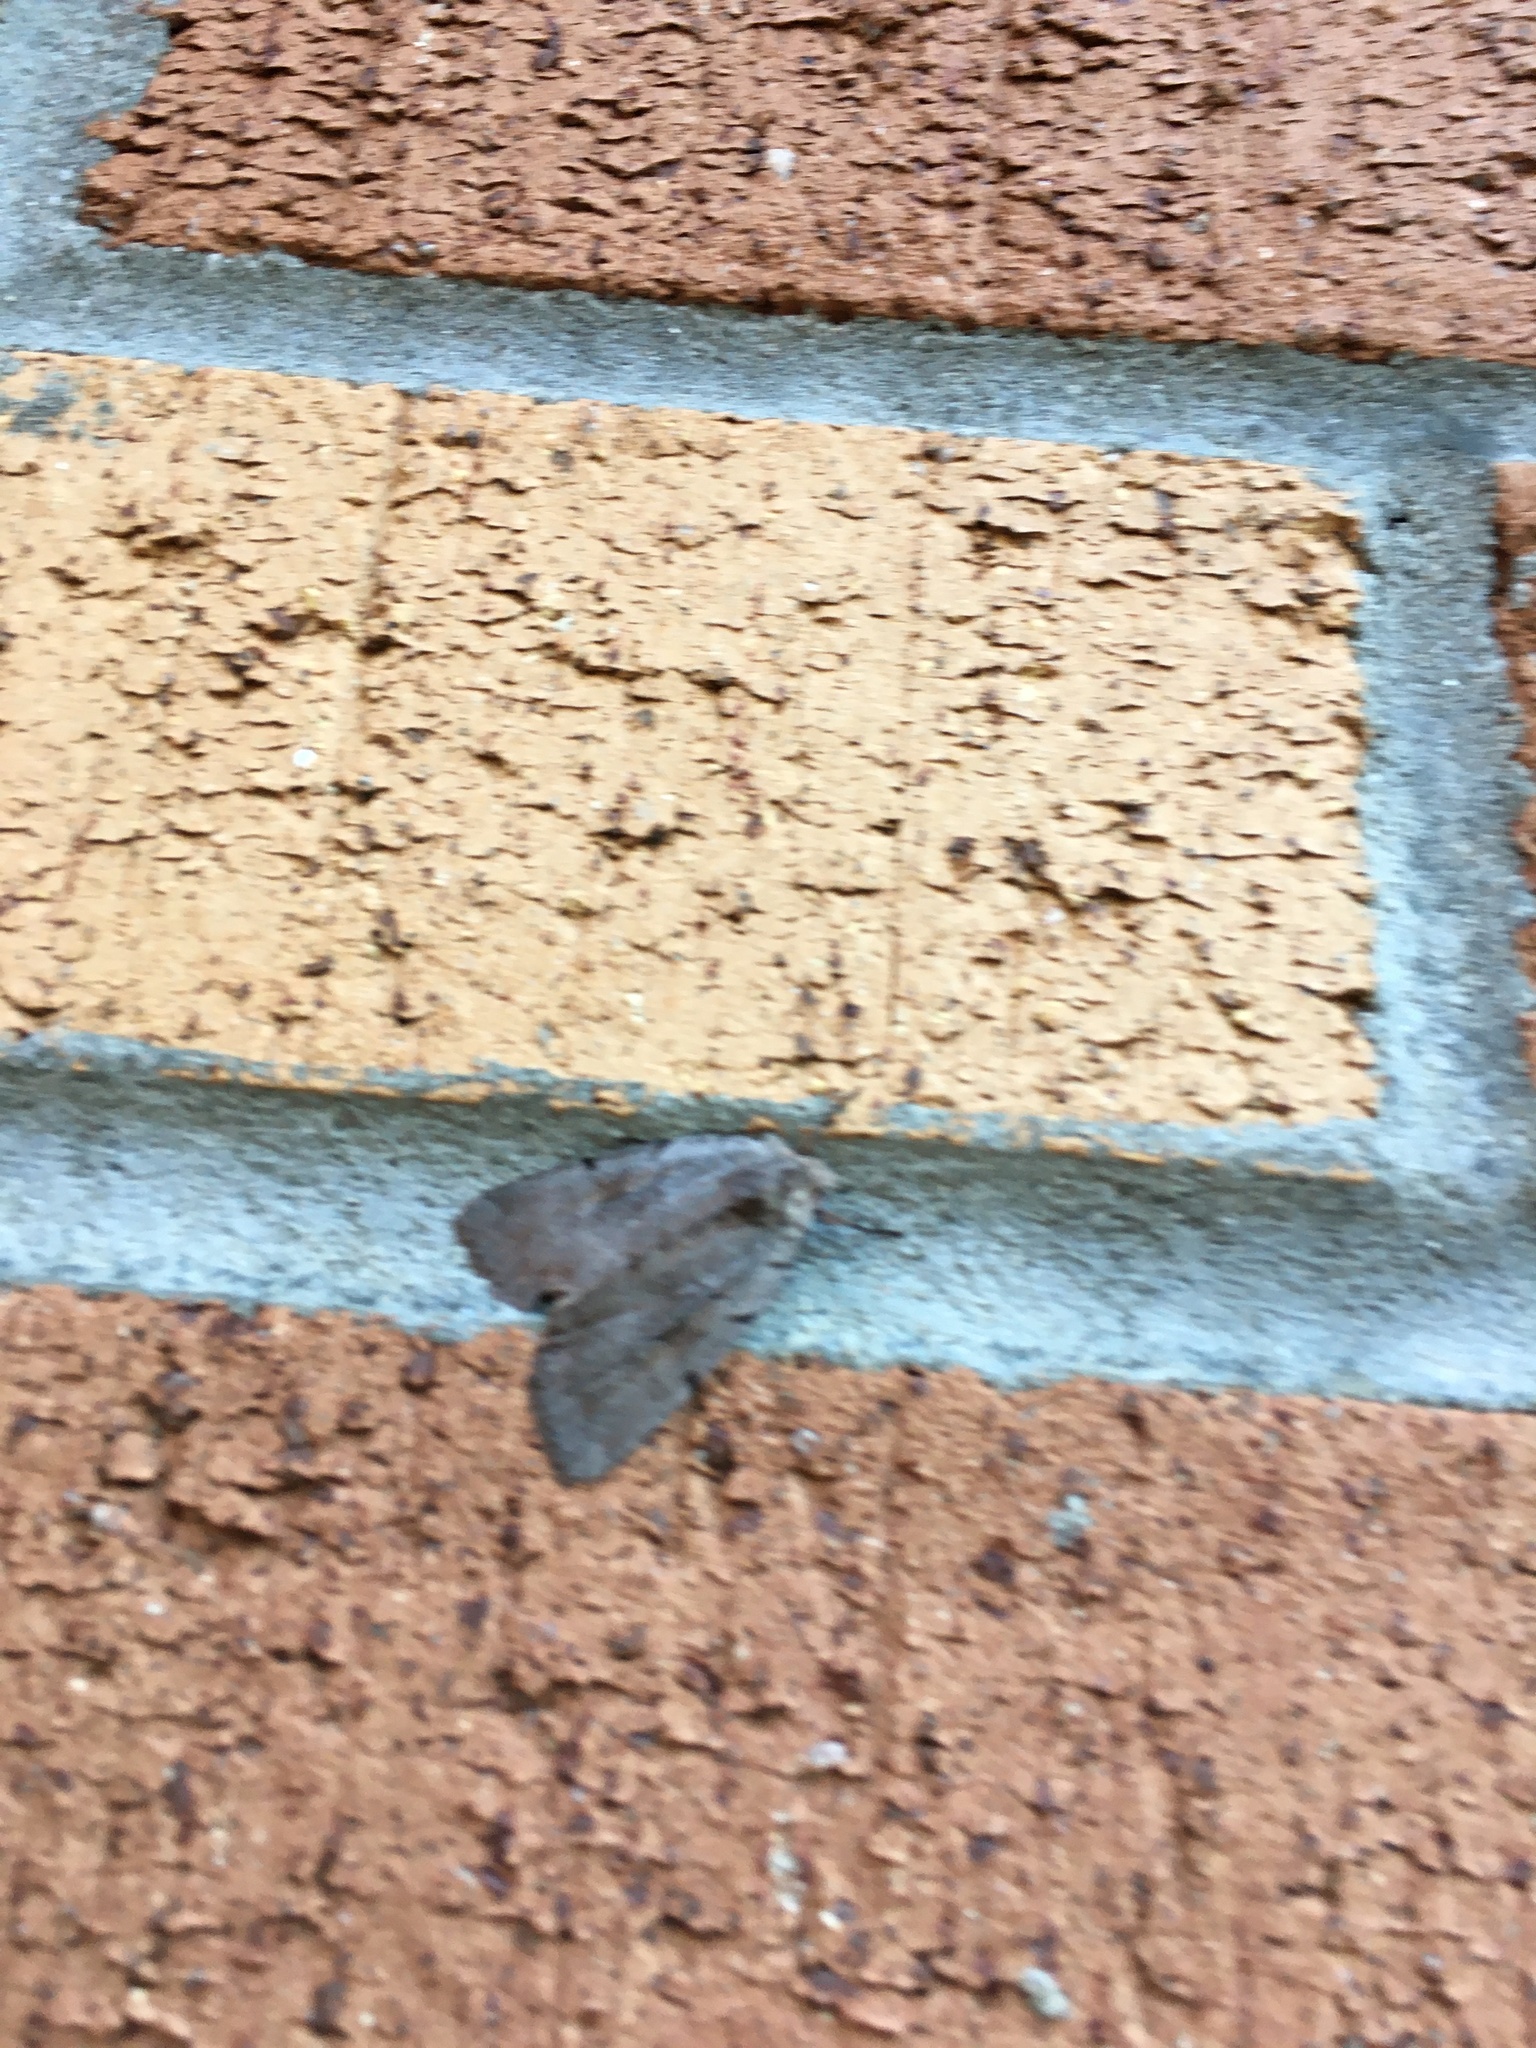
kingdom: Animalia
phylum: Arthropoda
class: Insecta
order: Lepidoptera
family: Noctuidae
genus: Xestia
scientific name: Xestia elimata
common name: Chameleon caterpillar
